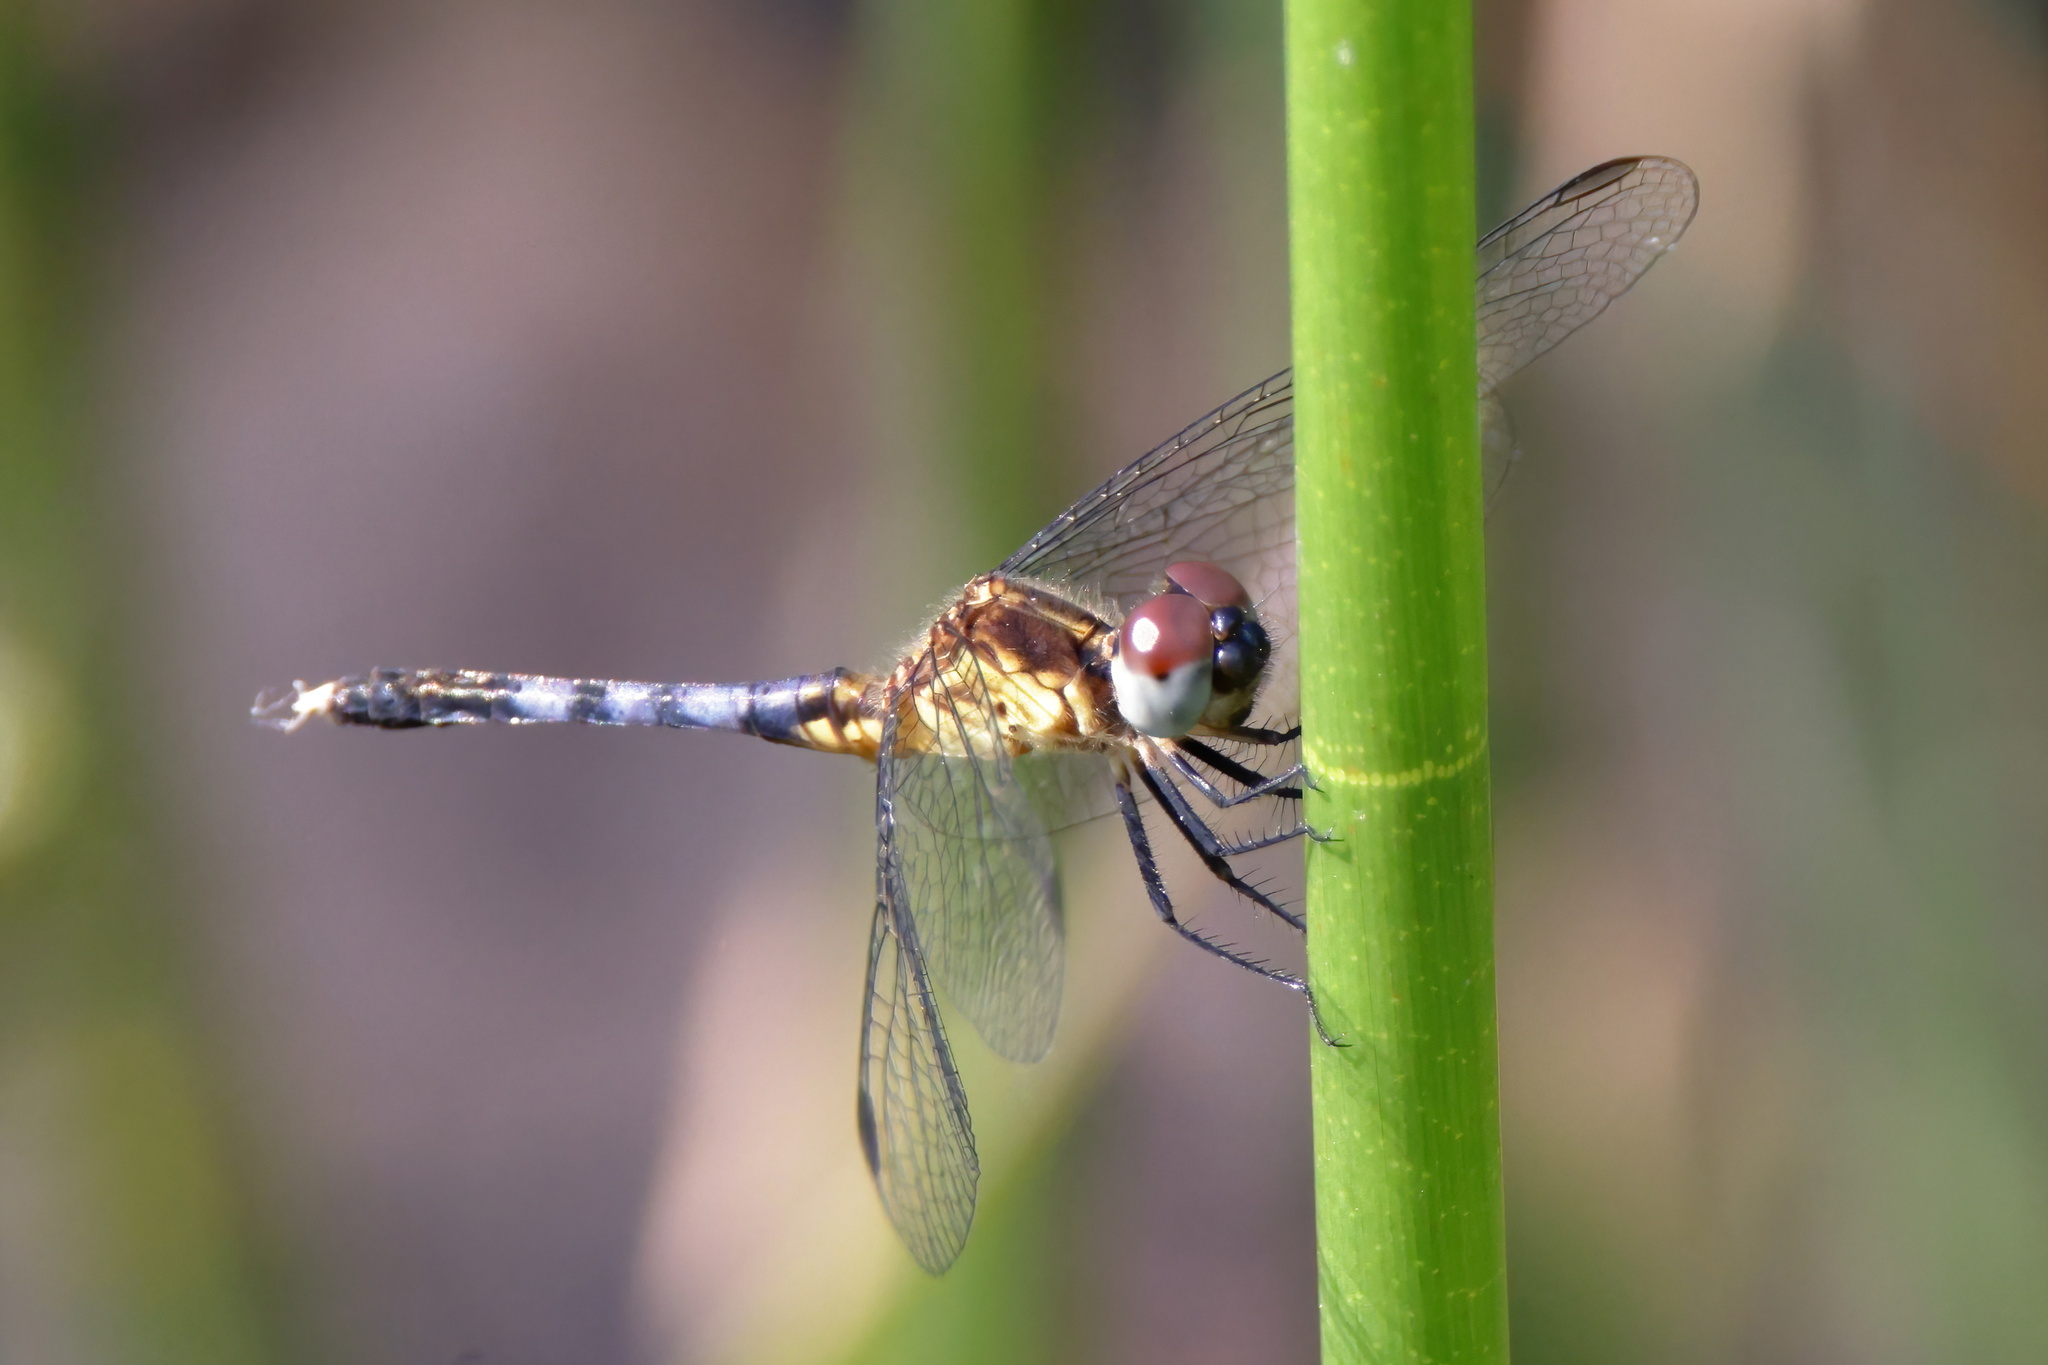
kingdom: Animalia
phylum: Arthropoda
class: Insecta
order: Odonata
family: Libellulidae
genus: Erythrodiplax
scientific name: Erythrodiplax minuscula
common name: Little blue dragonlet
